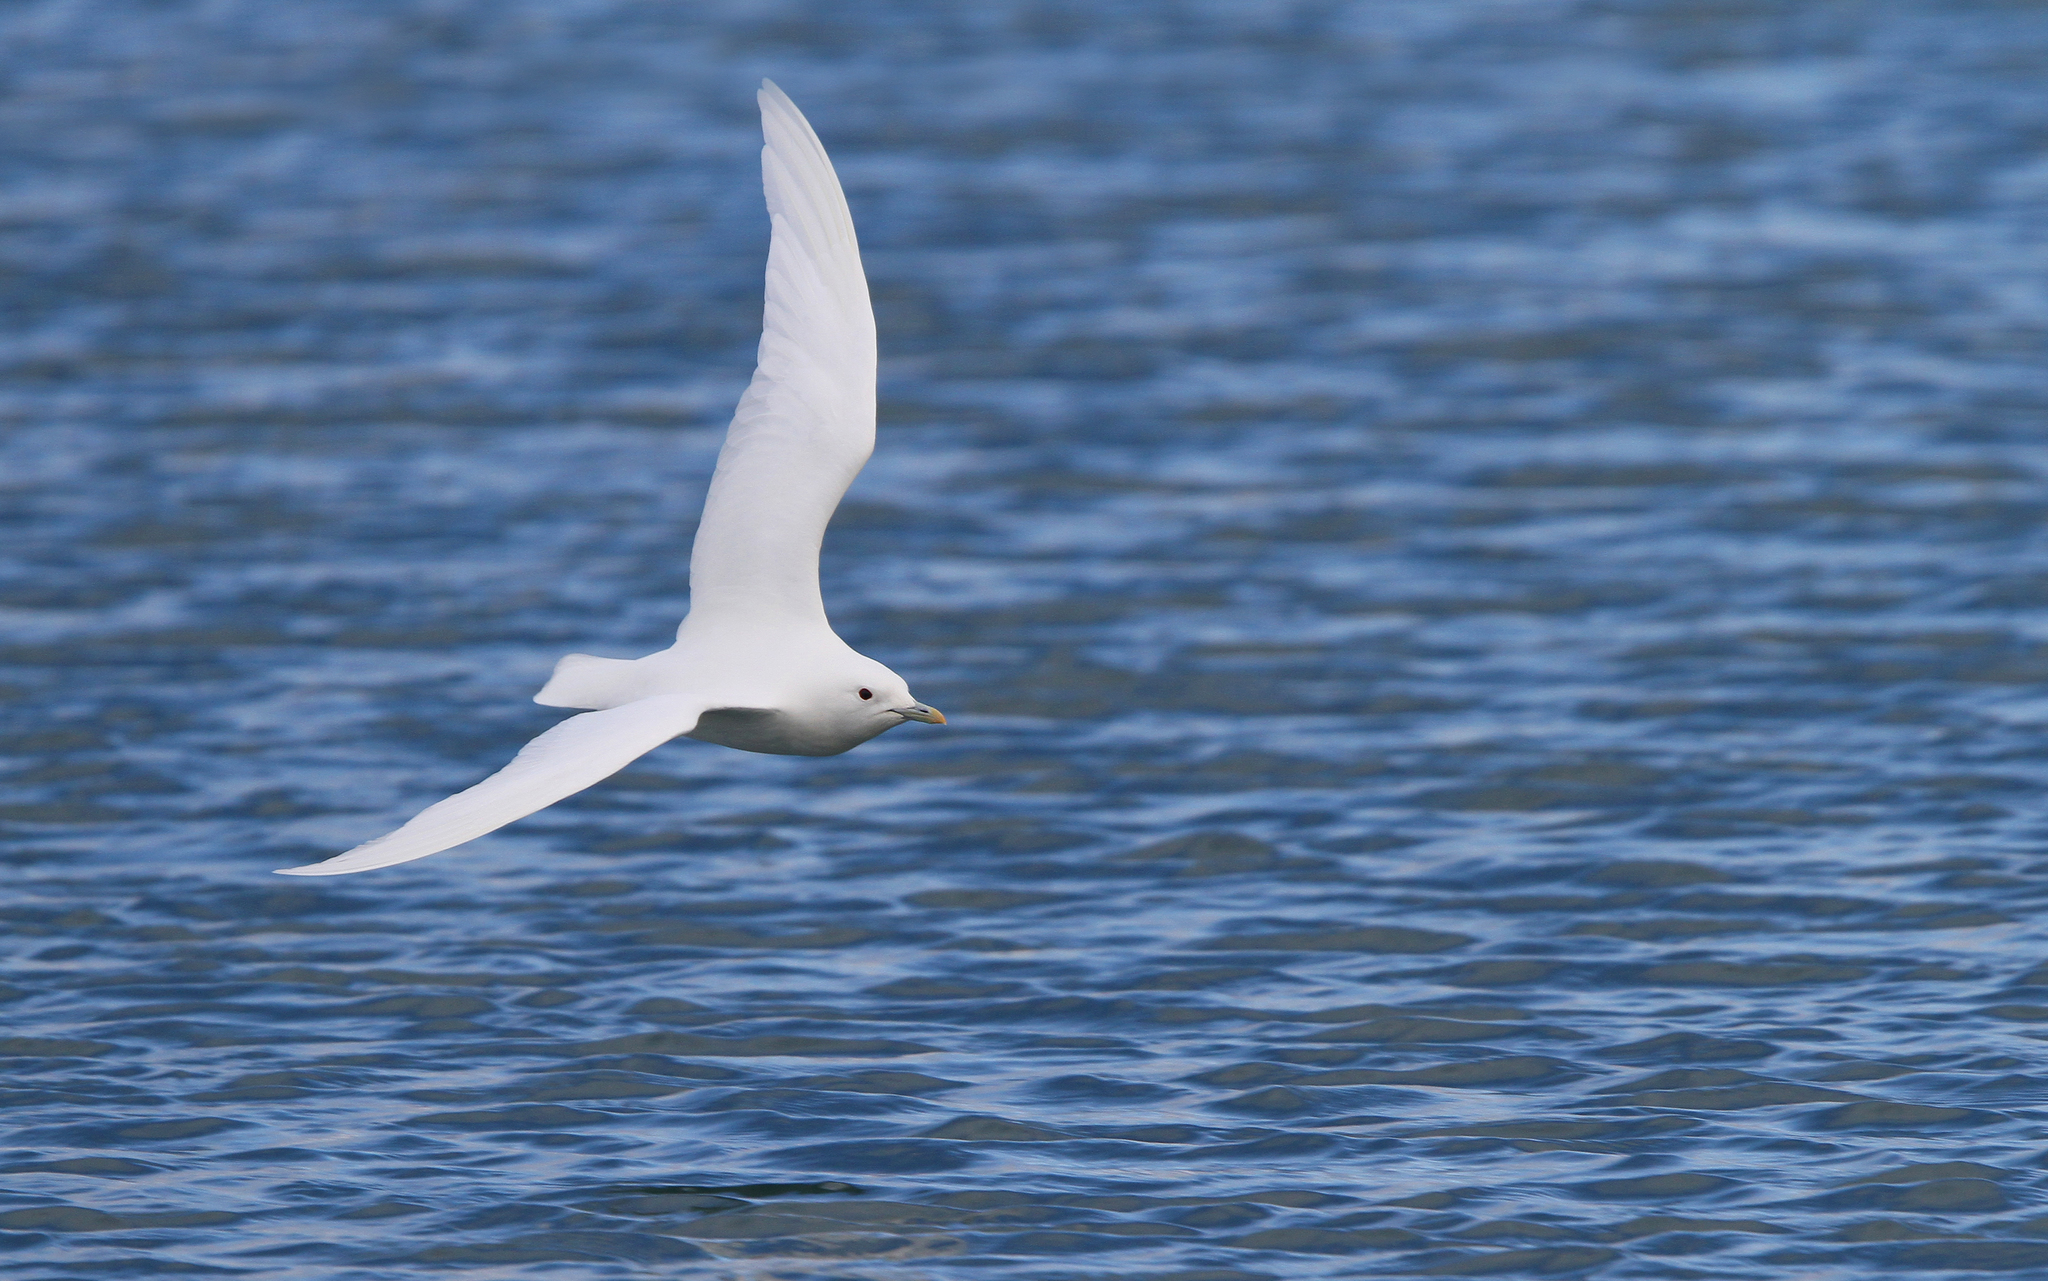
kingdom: Animalia
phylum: Chordata
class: Aves
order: Charadriiformes
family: Laridae
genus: Pagophila
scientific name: Pagophila eburnea
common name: Ivory gull
